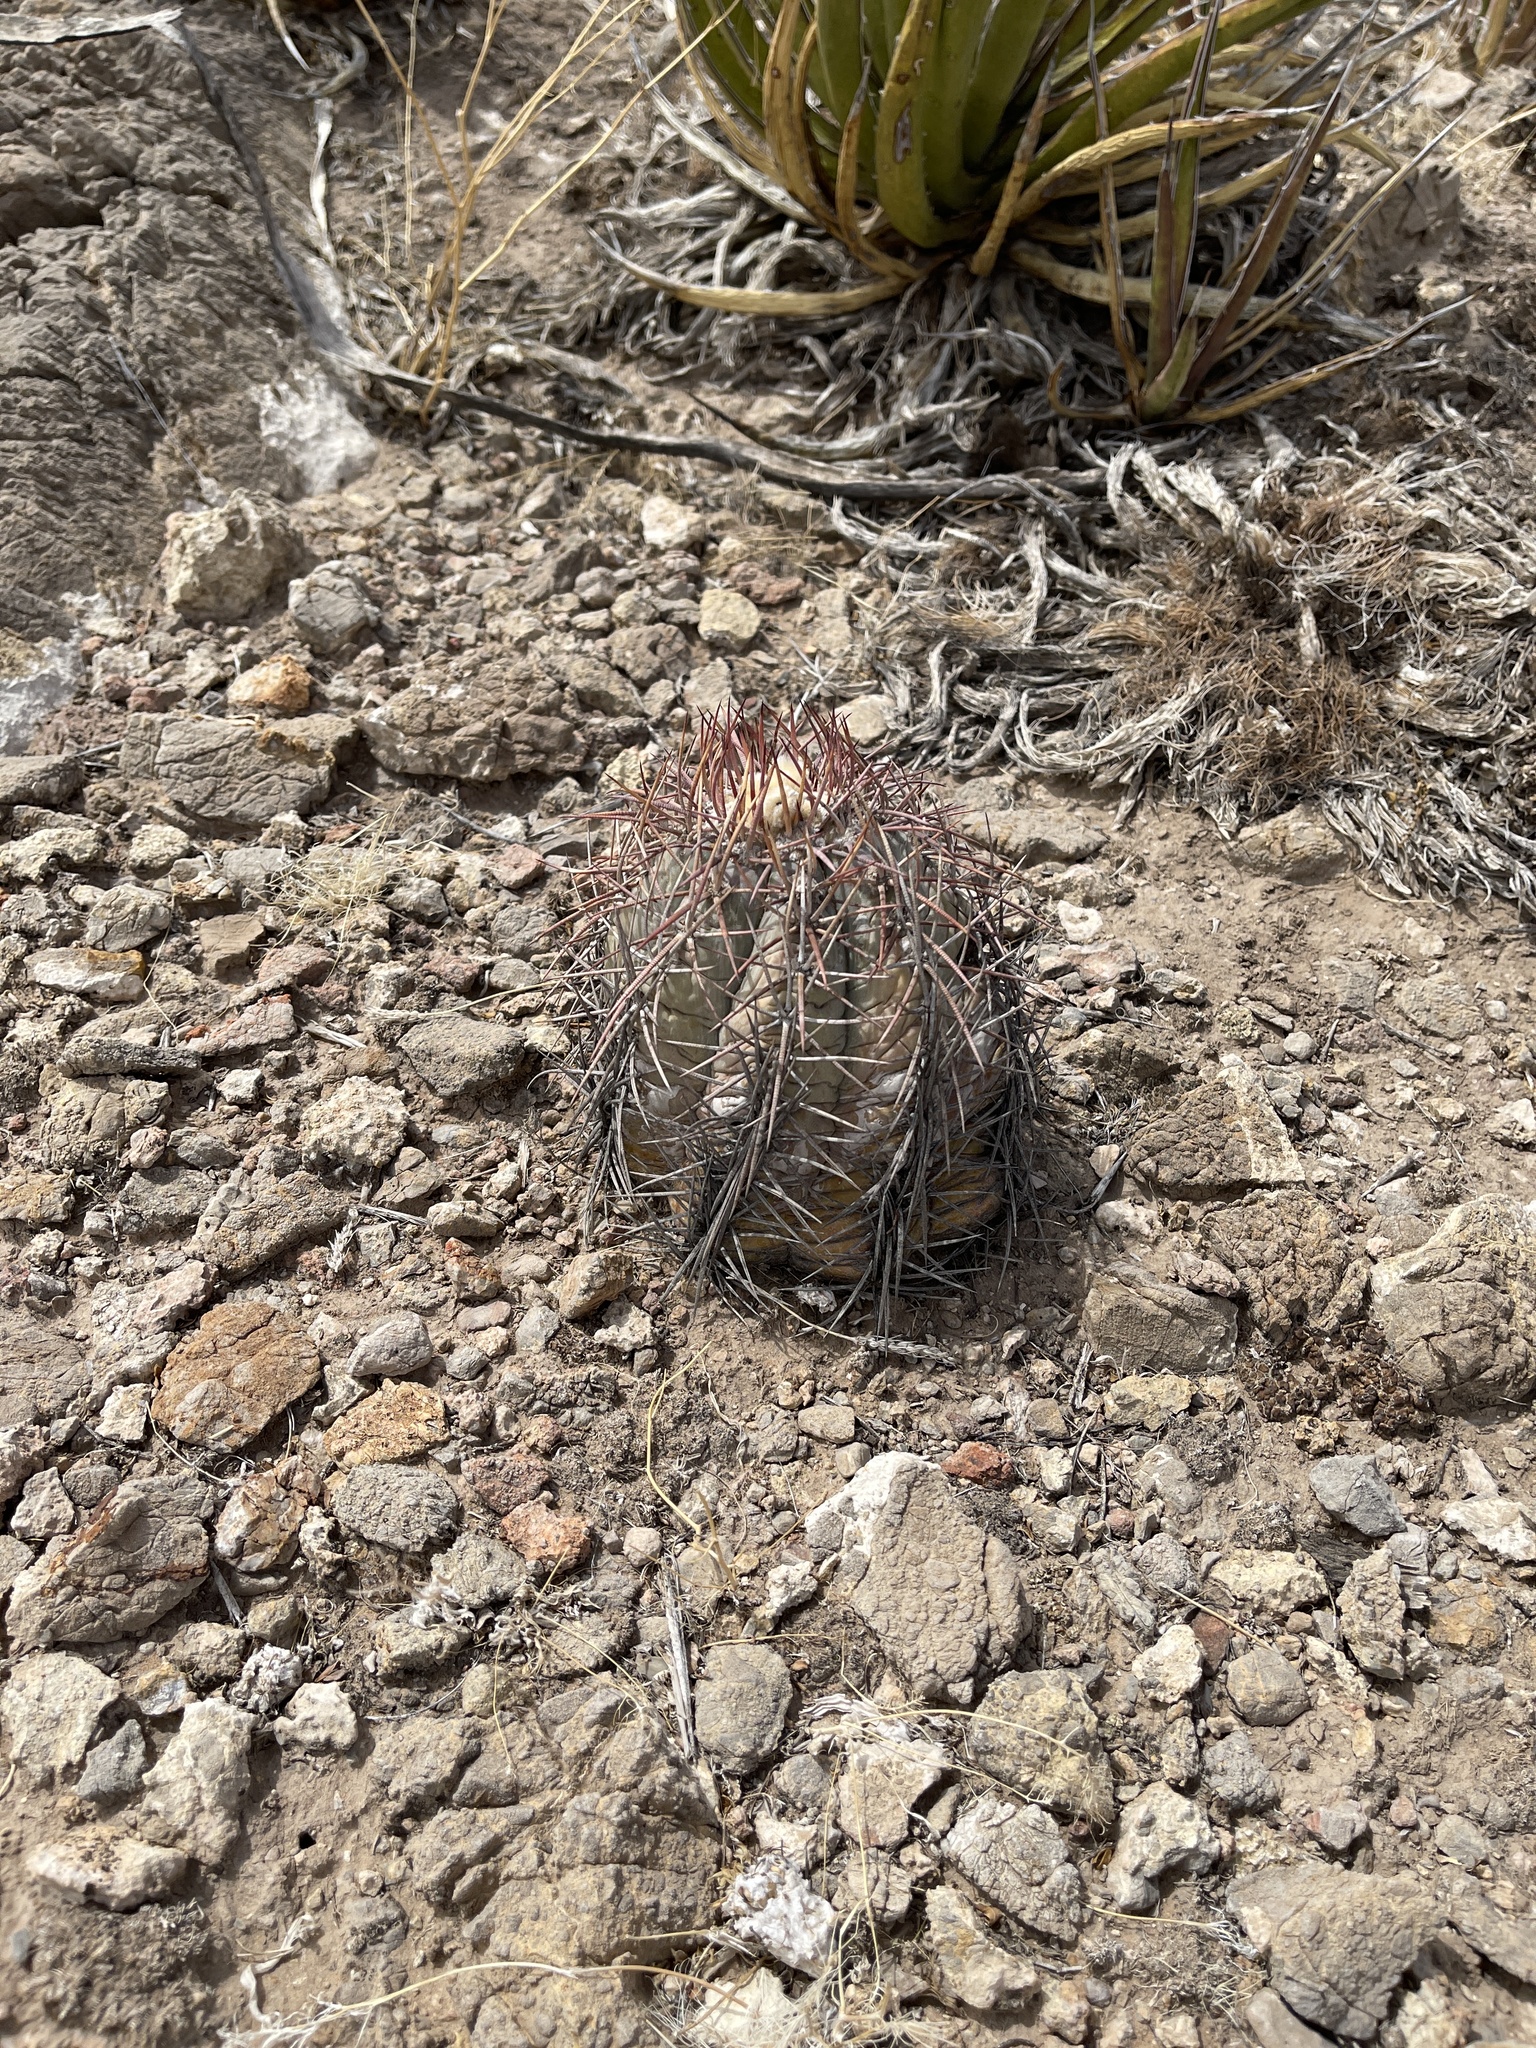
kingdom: Plantae
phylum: Tracheophyta
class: Magnoliopsida
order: Caryophyllales
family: Cactaceae
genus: Echinocactus
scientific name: Echinocactus horizonthalonius
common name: Devilshead
